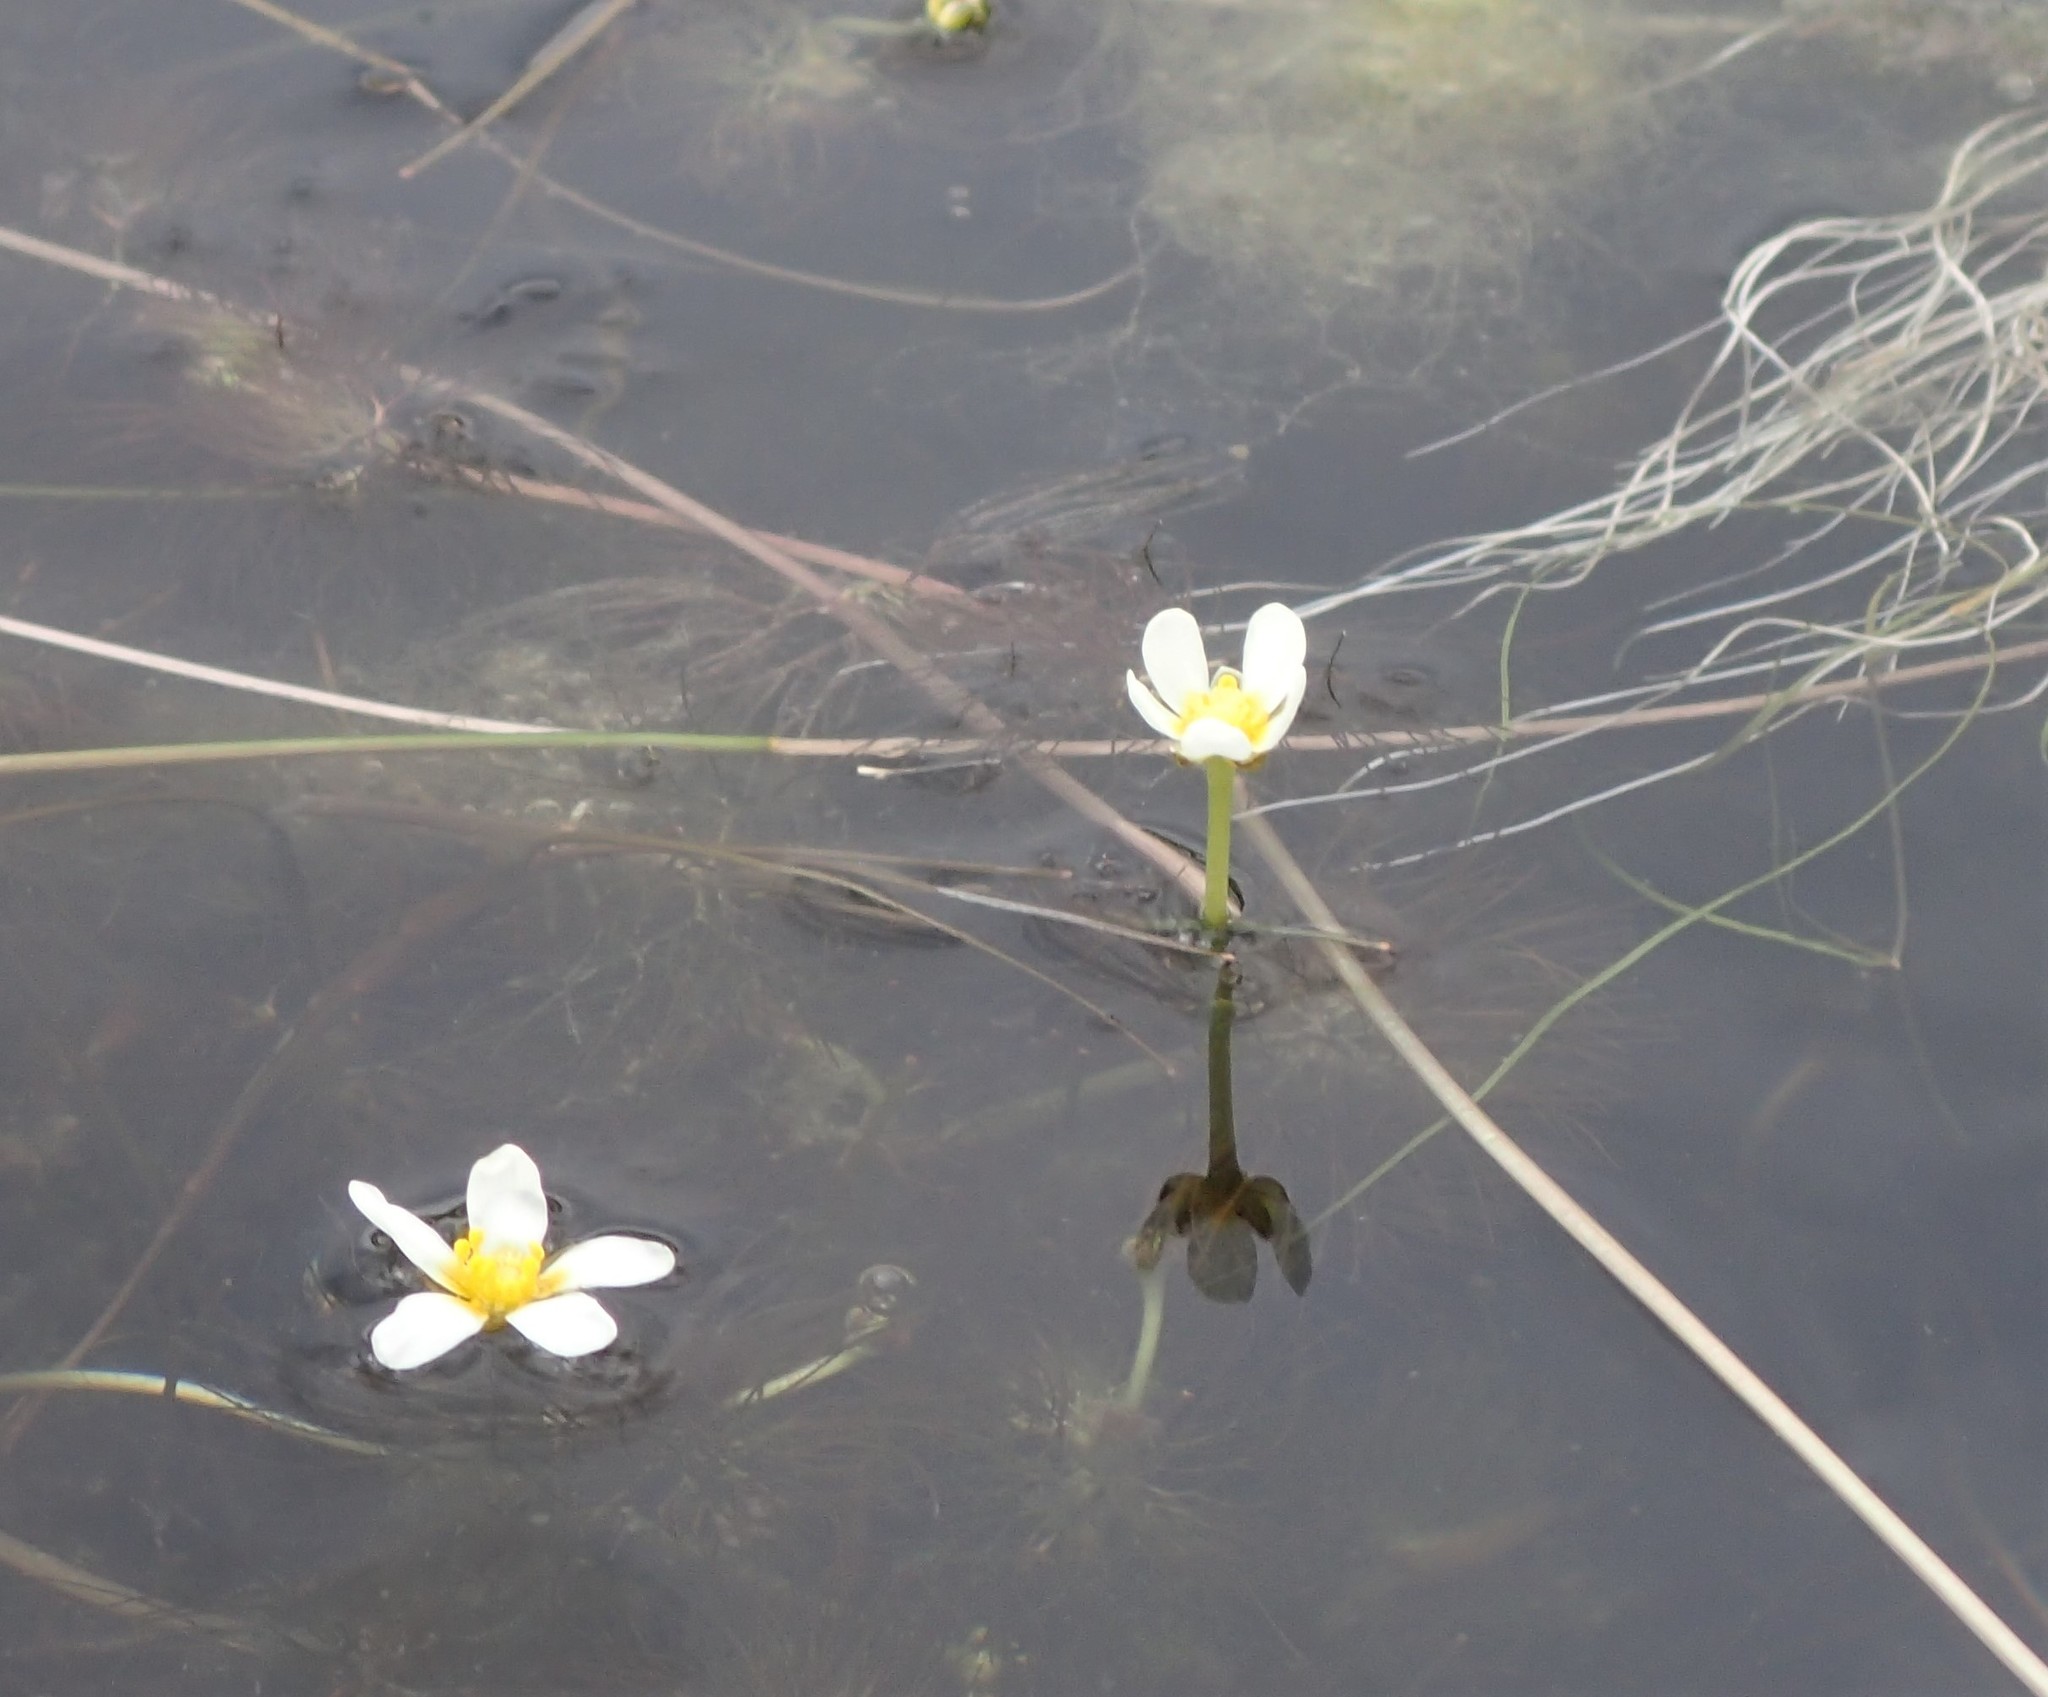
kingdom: Plantae
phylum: Tracheophyta
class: Magnoliopsida
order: Ranunculales
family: Ranunculaceae
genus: Ranunculus
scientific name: Ranunculus aquatilis
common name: Common water-crowfoot
